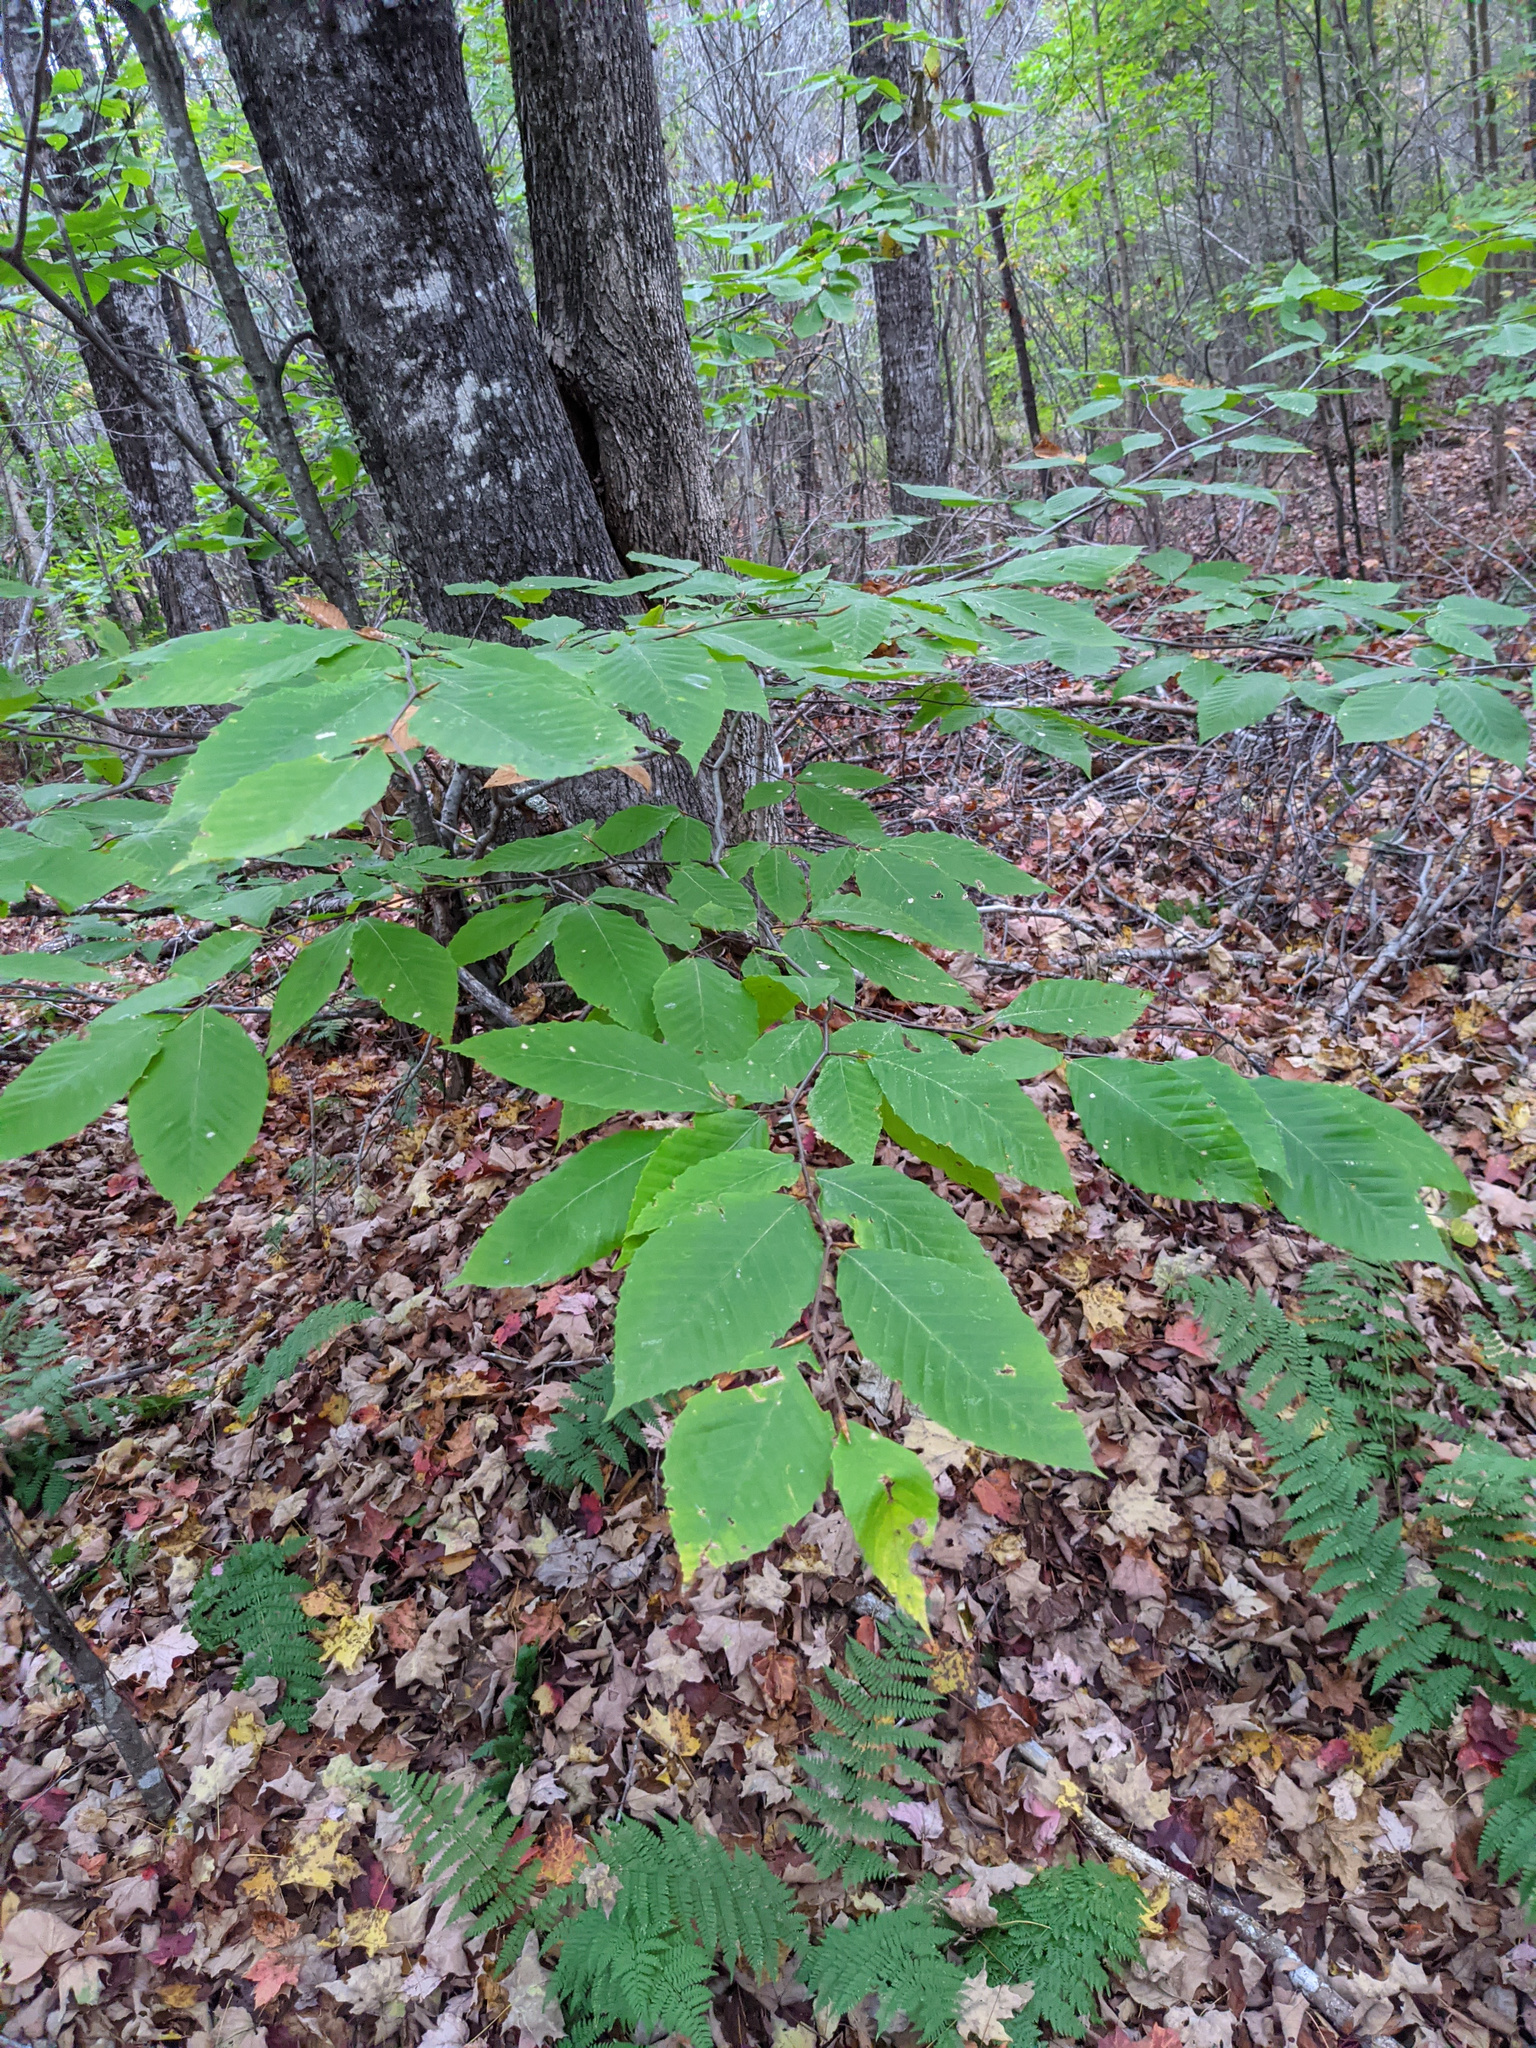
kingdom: Plantae
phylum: Tracheophyta
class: Magnoliopsida
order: Fagales
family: Fagaceae
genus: Fagus
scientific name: Fagus grandifolia
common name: American beech
